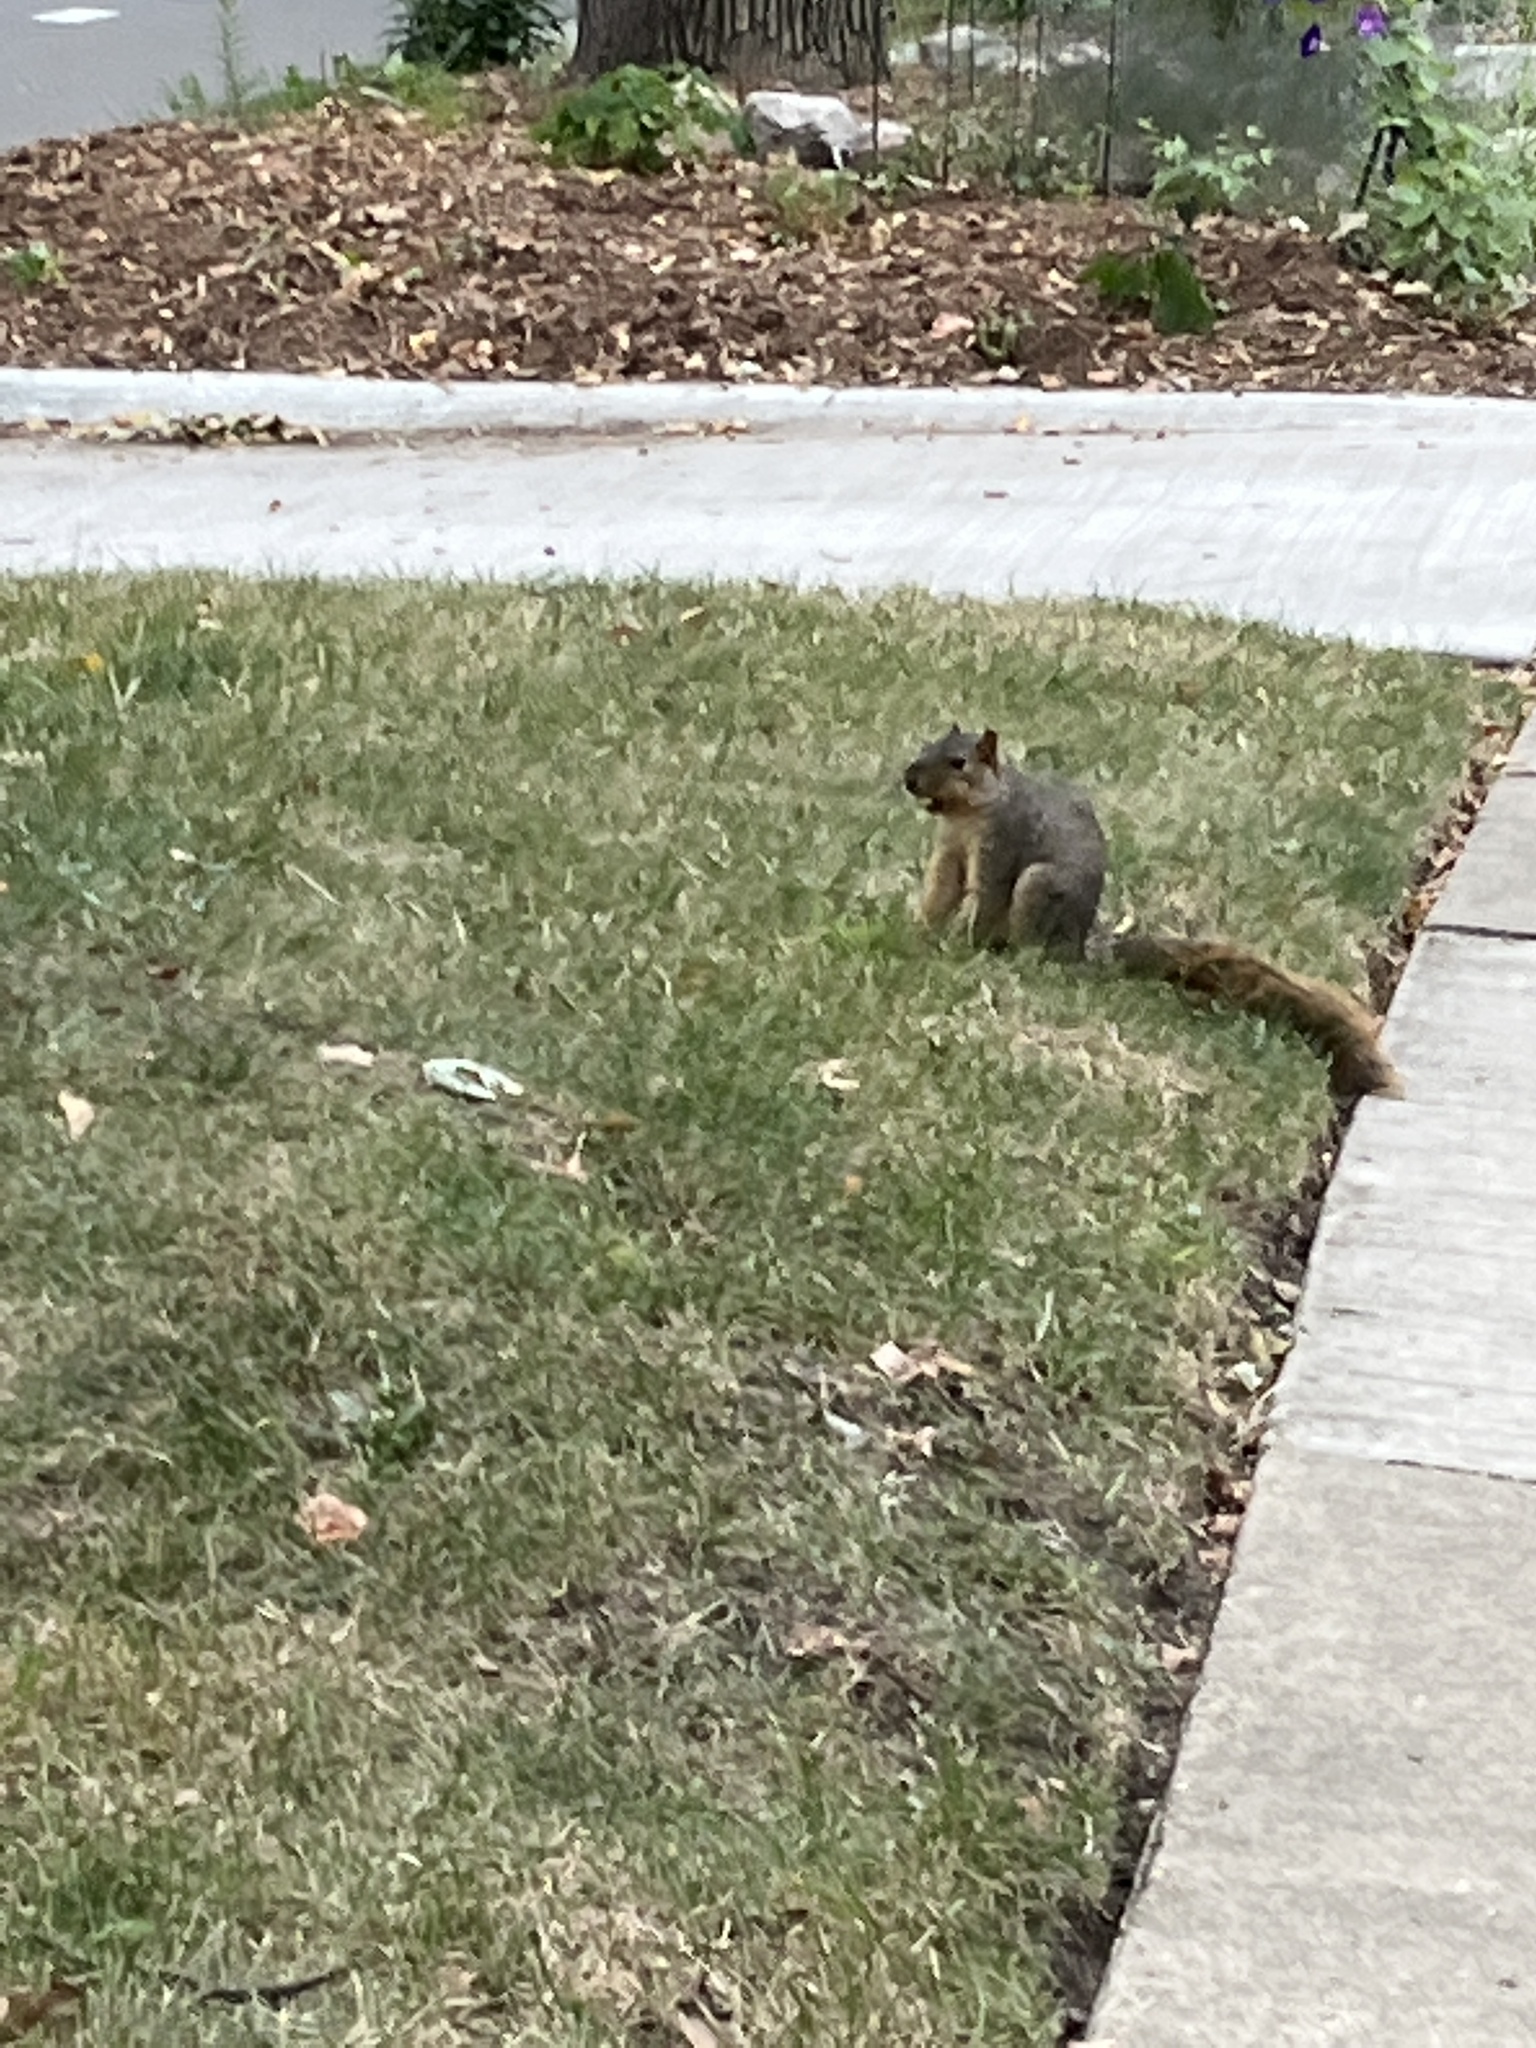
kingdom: Animalia
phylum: Chordata
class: Mammalia
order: Rodentia
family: Sciuridae
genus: Sciurus
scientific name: Sciurus niger
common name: Fox squirrel
